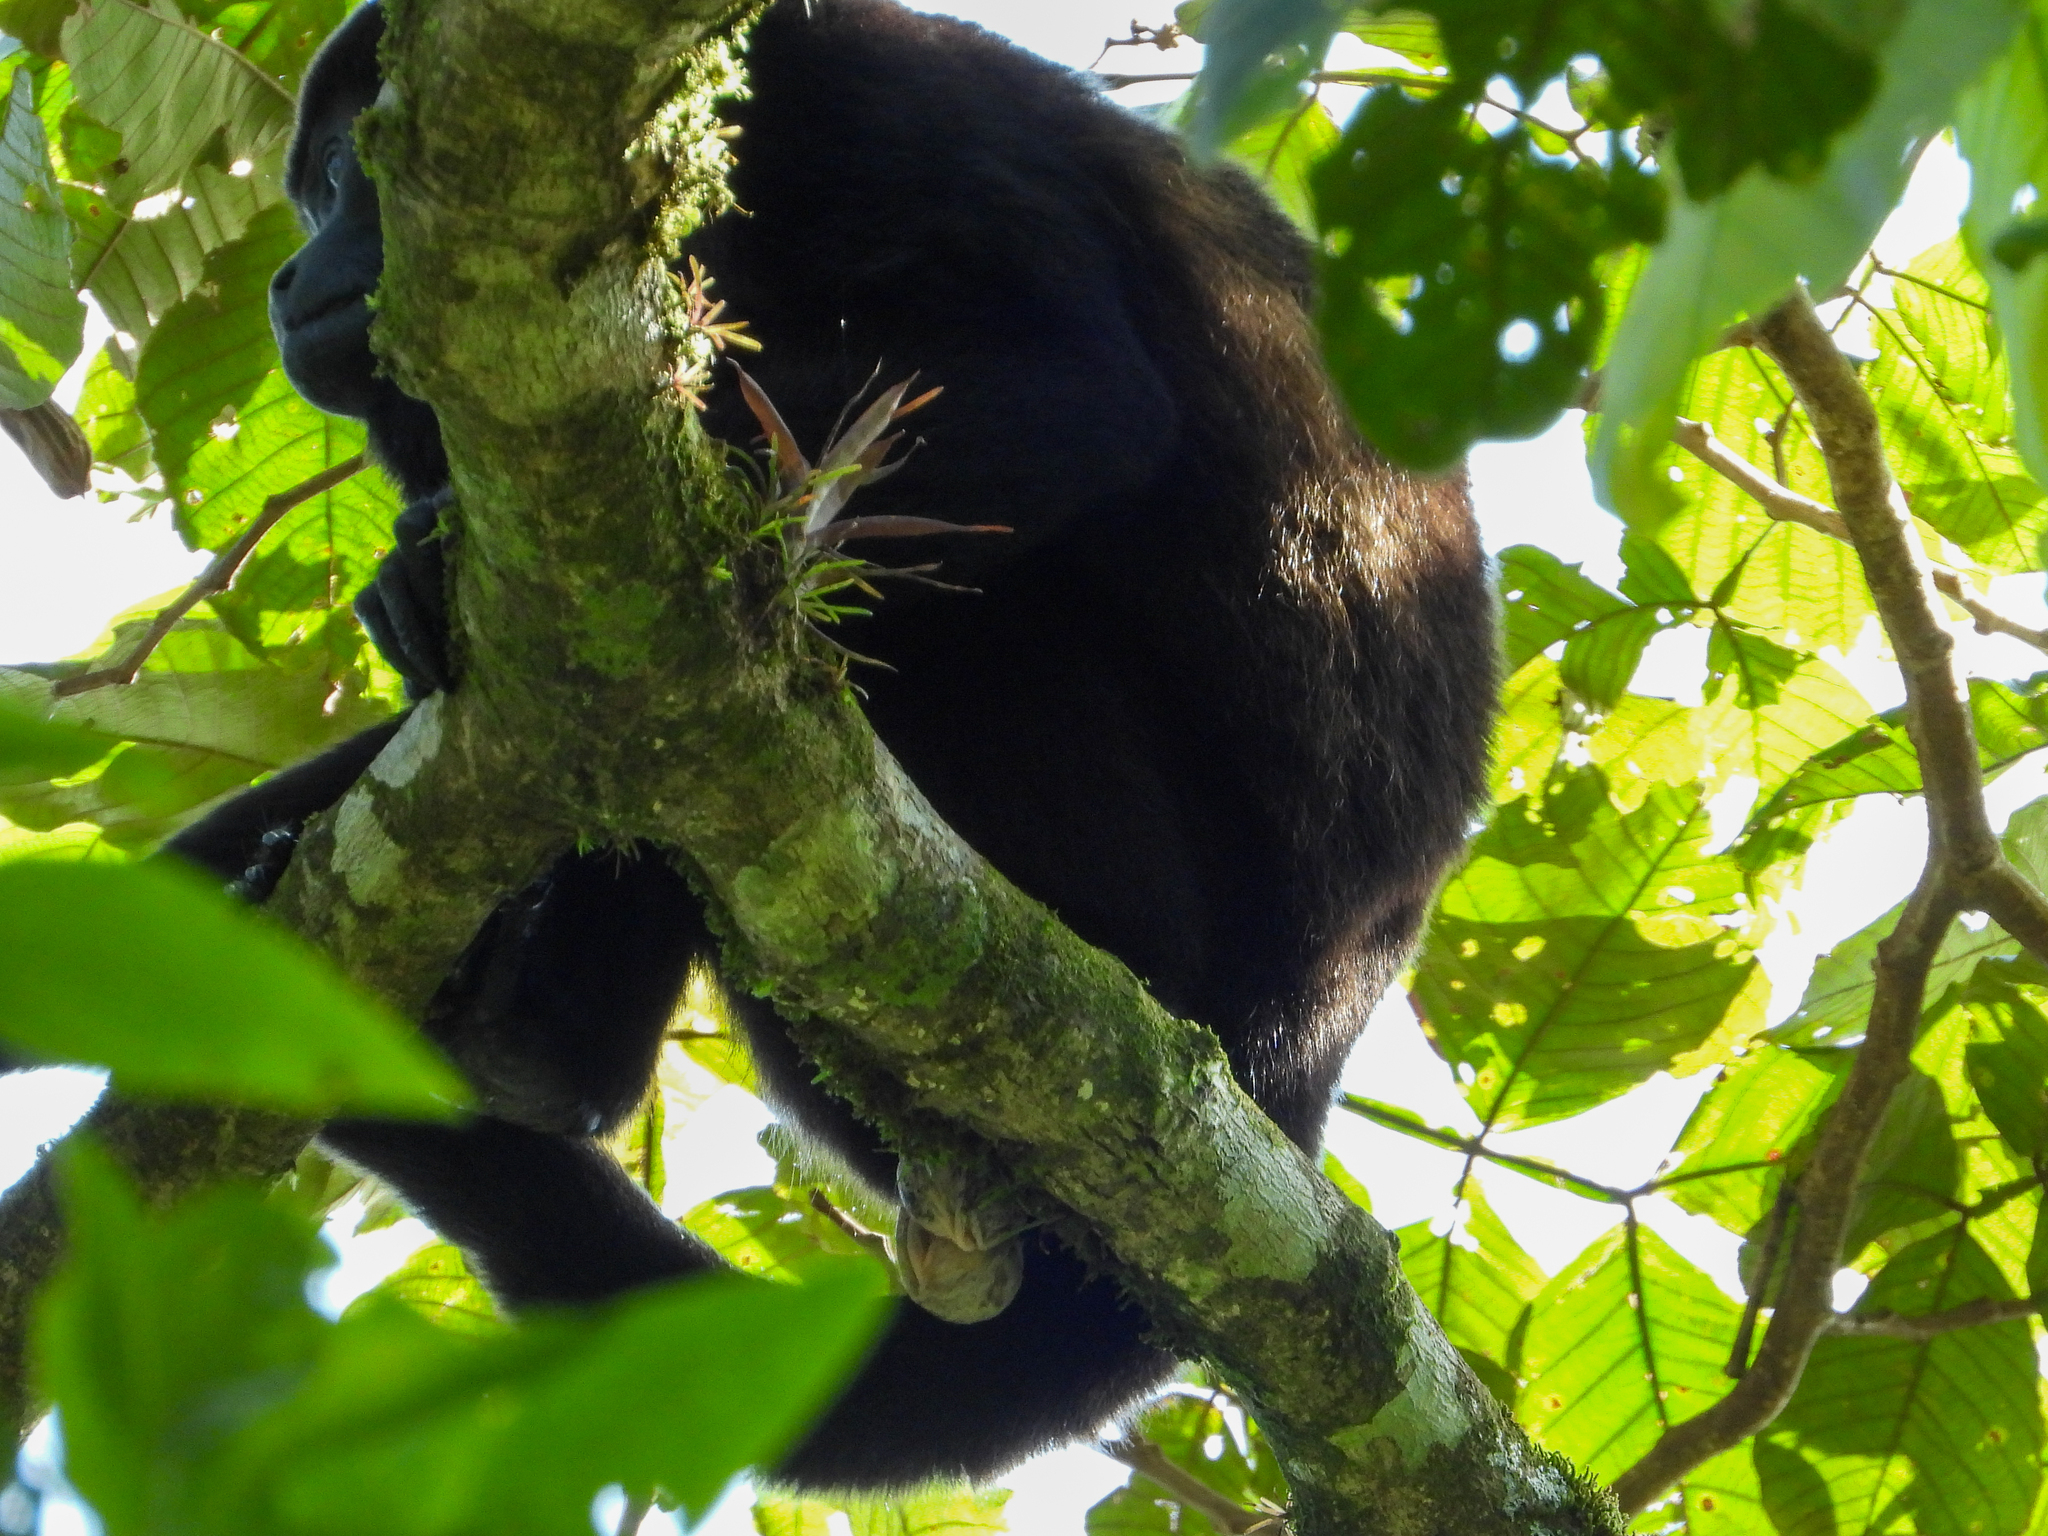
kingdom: Animalia
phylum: Chordata
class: Mammalia
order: Primates
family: Atelidae
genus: Alouatta
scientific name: Alouatta palliata
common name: Mantled howler
